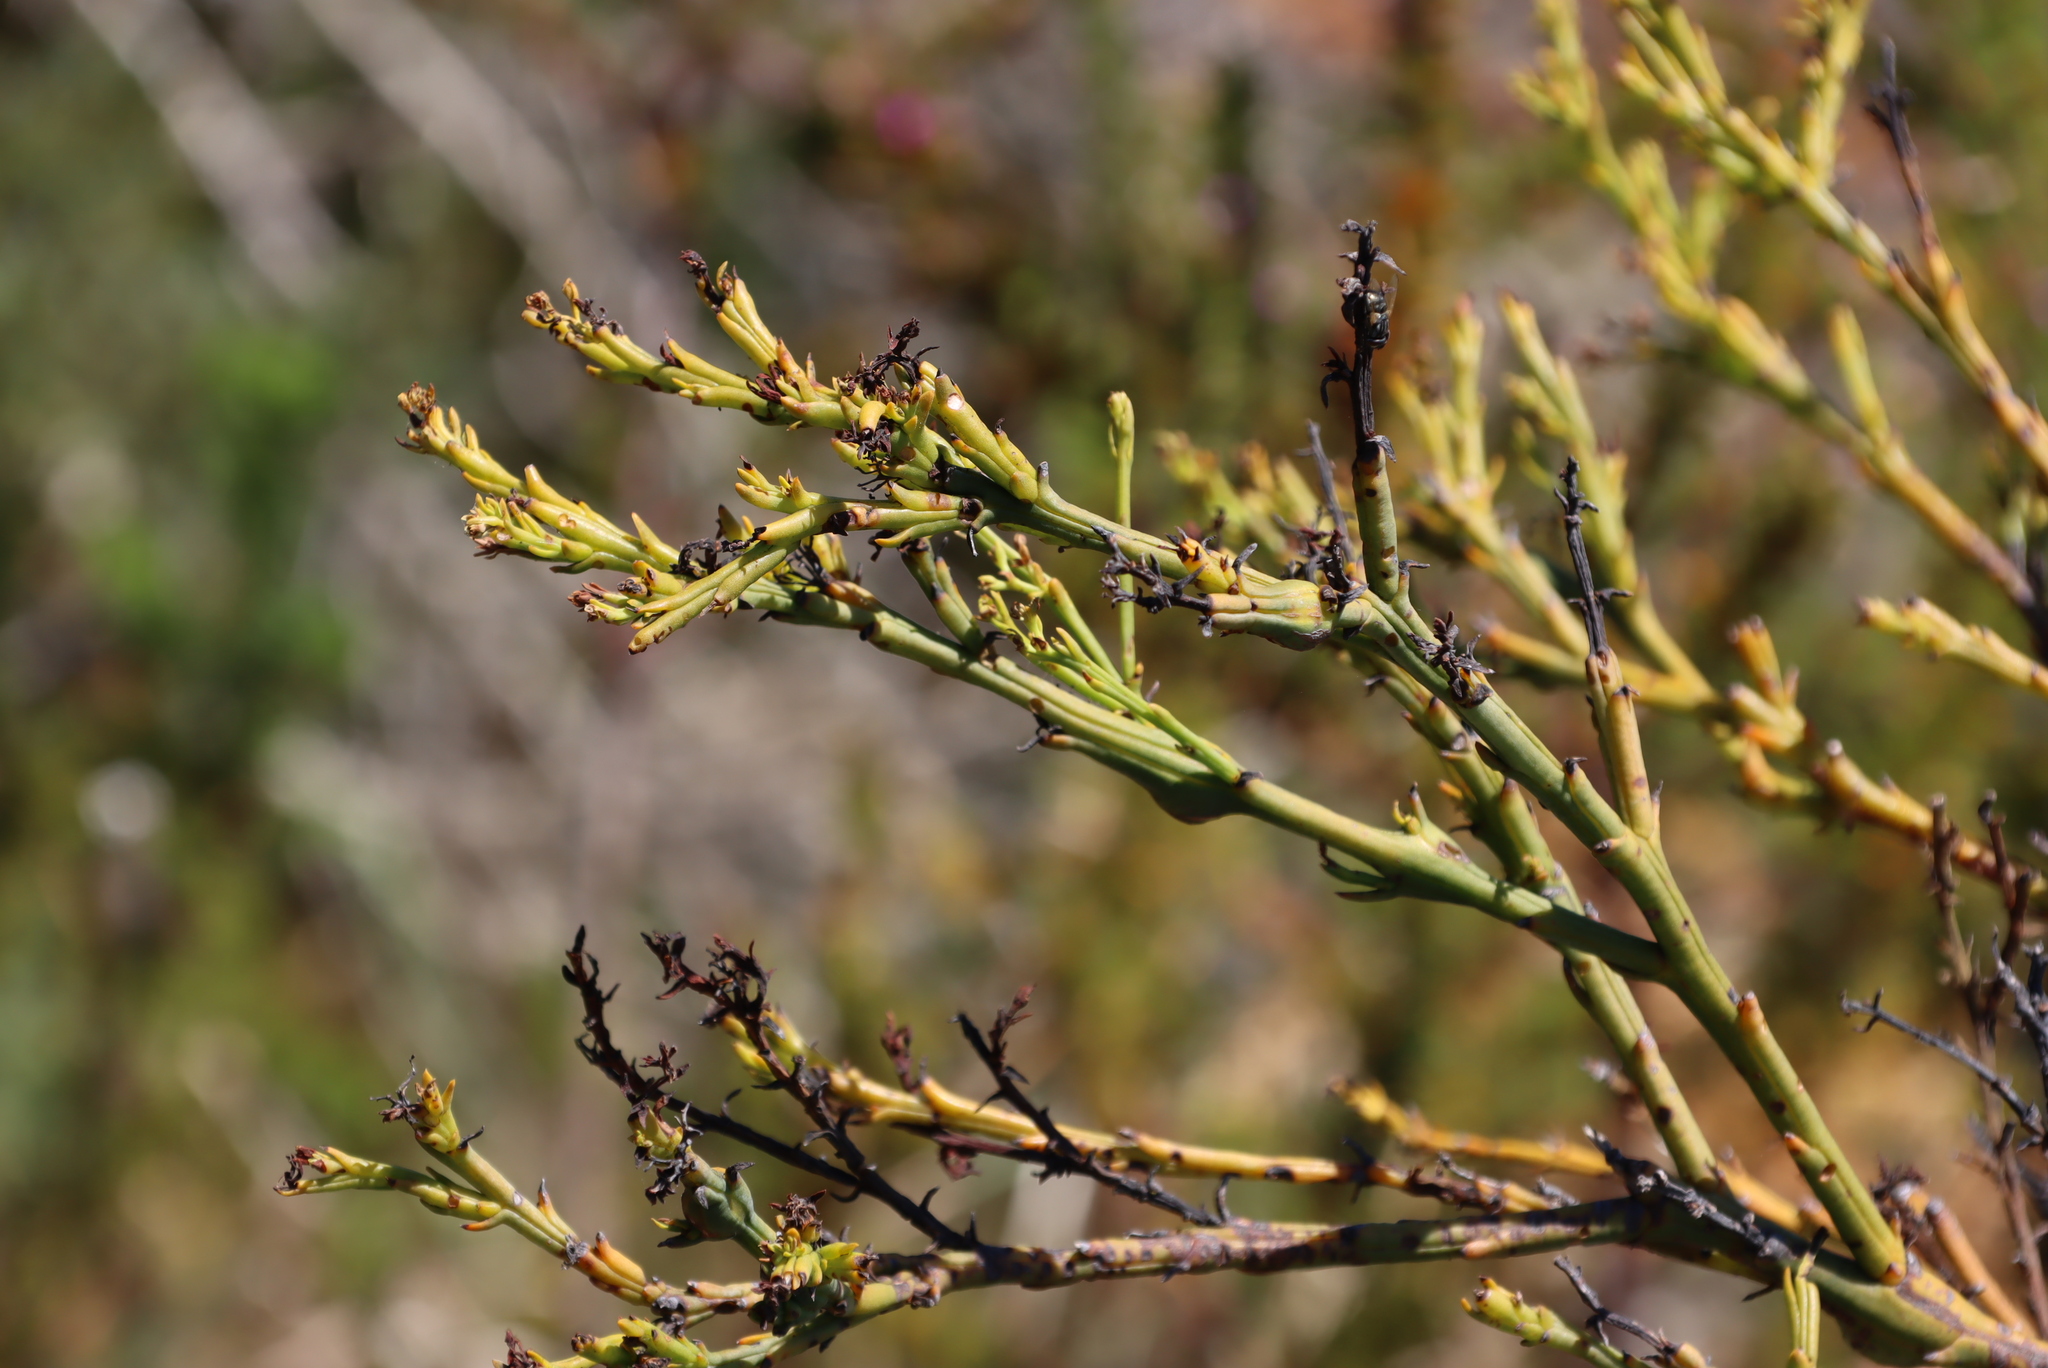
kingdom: Plantae
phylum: Tracheophyta
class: Magnoliopsida
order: Santalales
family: Thesiaceae
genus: Thesium
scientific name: Thesium strictum
